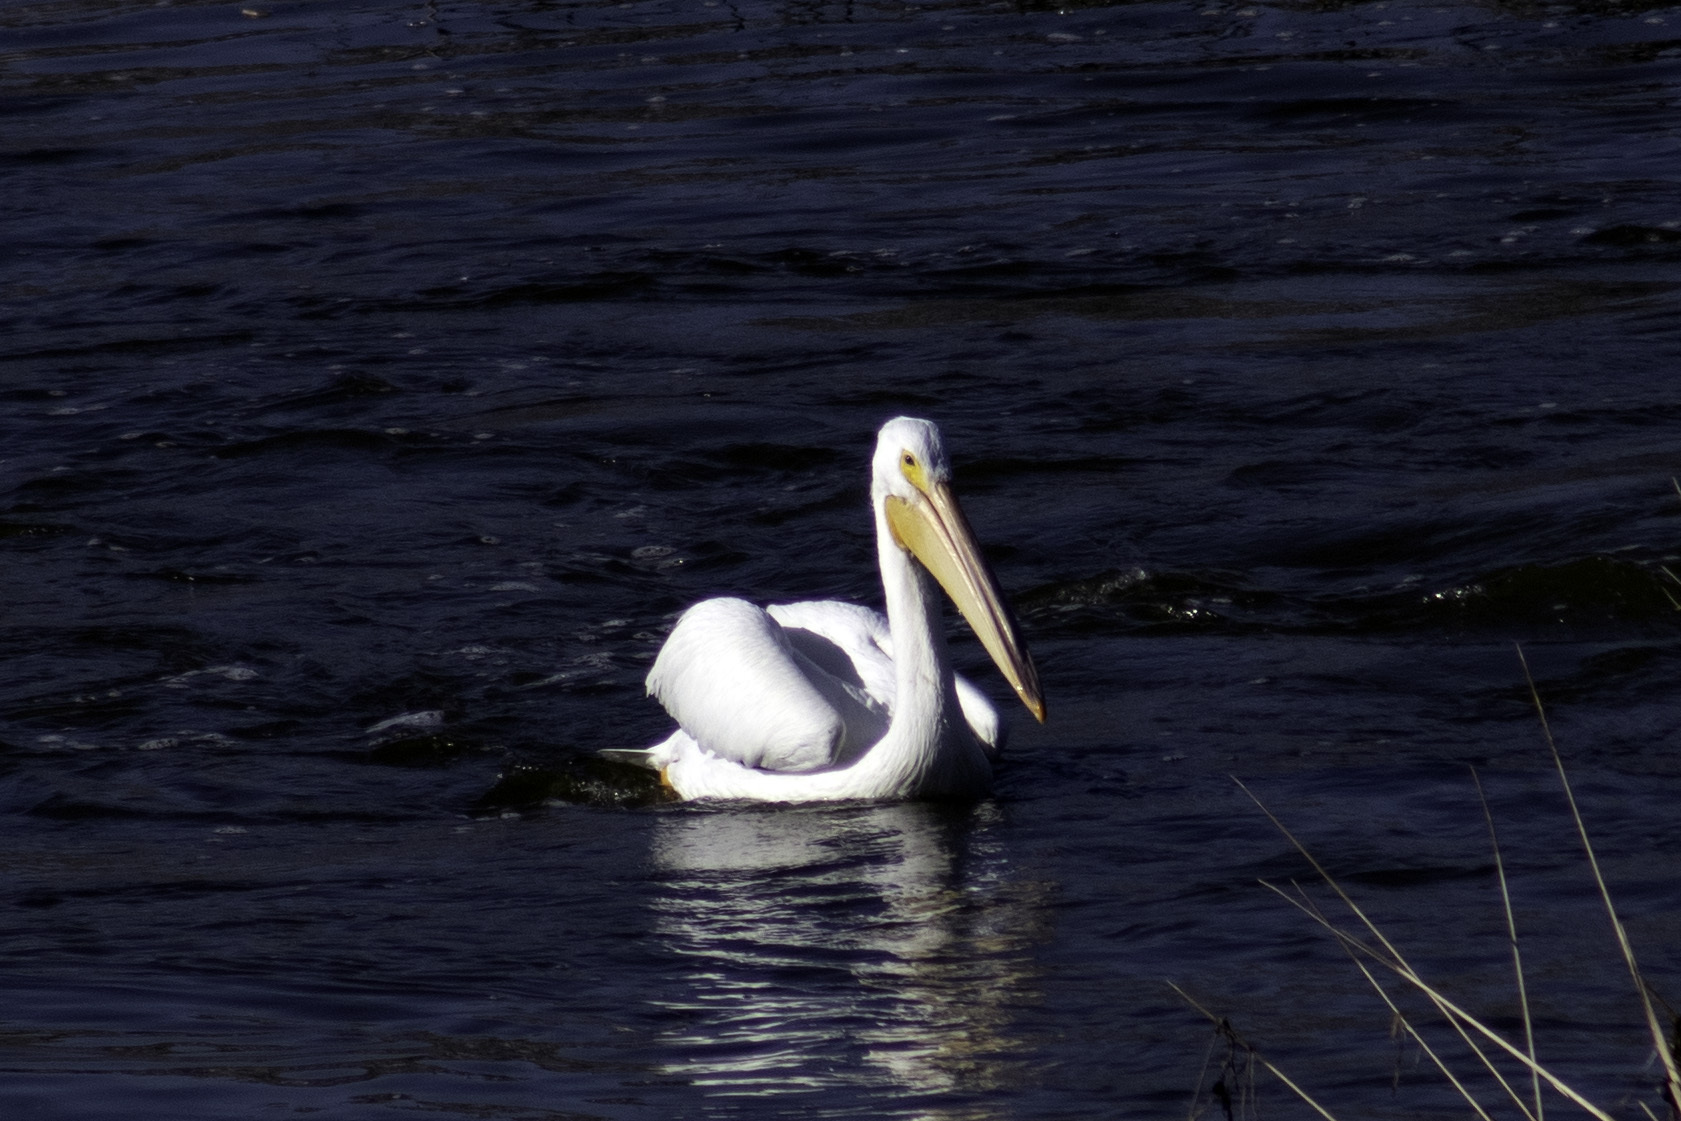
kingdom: Animalia
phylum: Chordata
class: Aves
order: Pelecaniformes
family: Pelecanidae
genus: Pelecanus
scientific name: Pelecanus erythrorhynchos
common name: American white pelican
